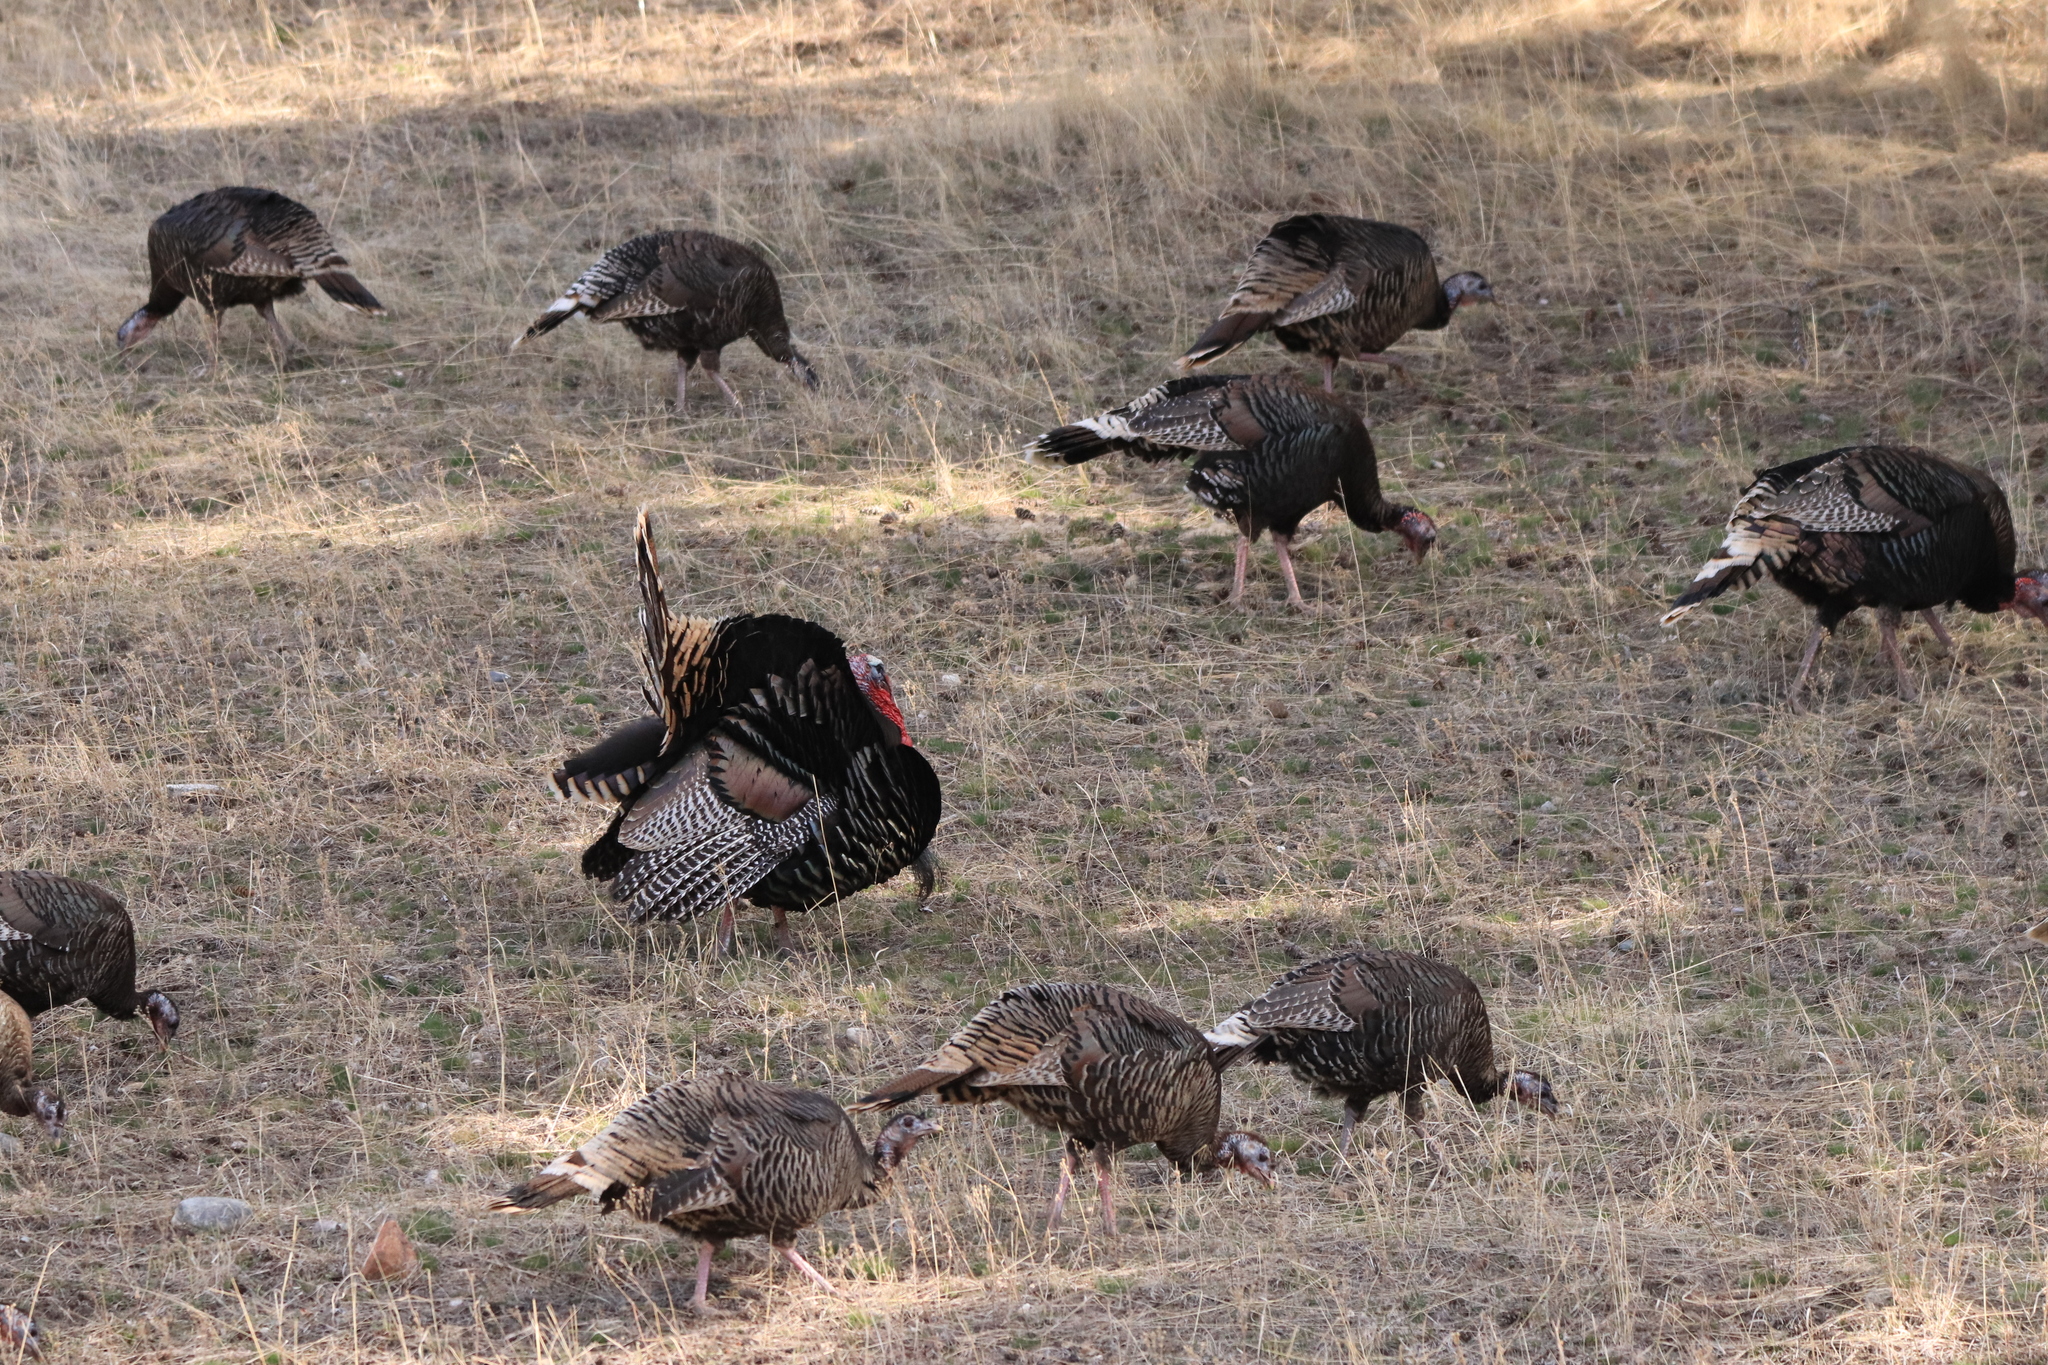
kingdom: Animalia
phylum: Chordata
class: Aves
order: Galliformes
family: Phasianidae
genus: Meleagris
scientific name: Meleagris gallopavo
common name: Wild turkey
